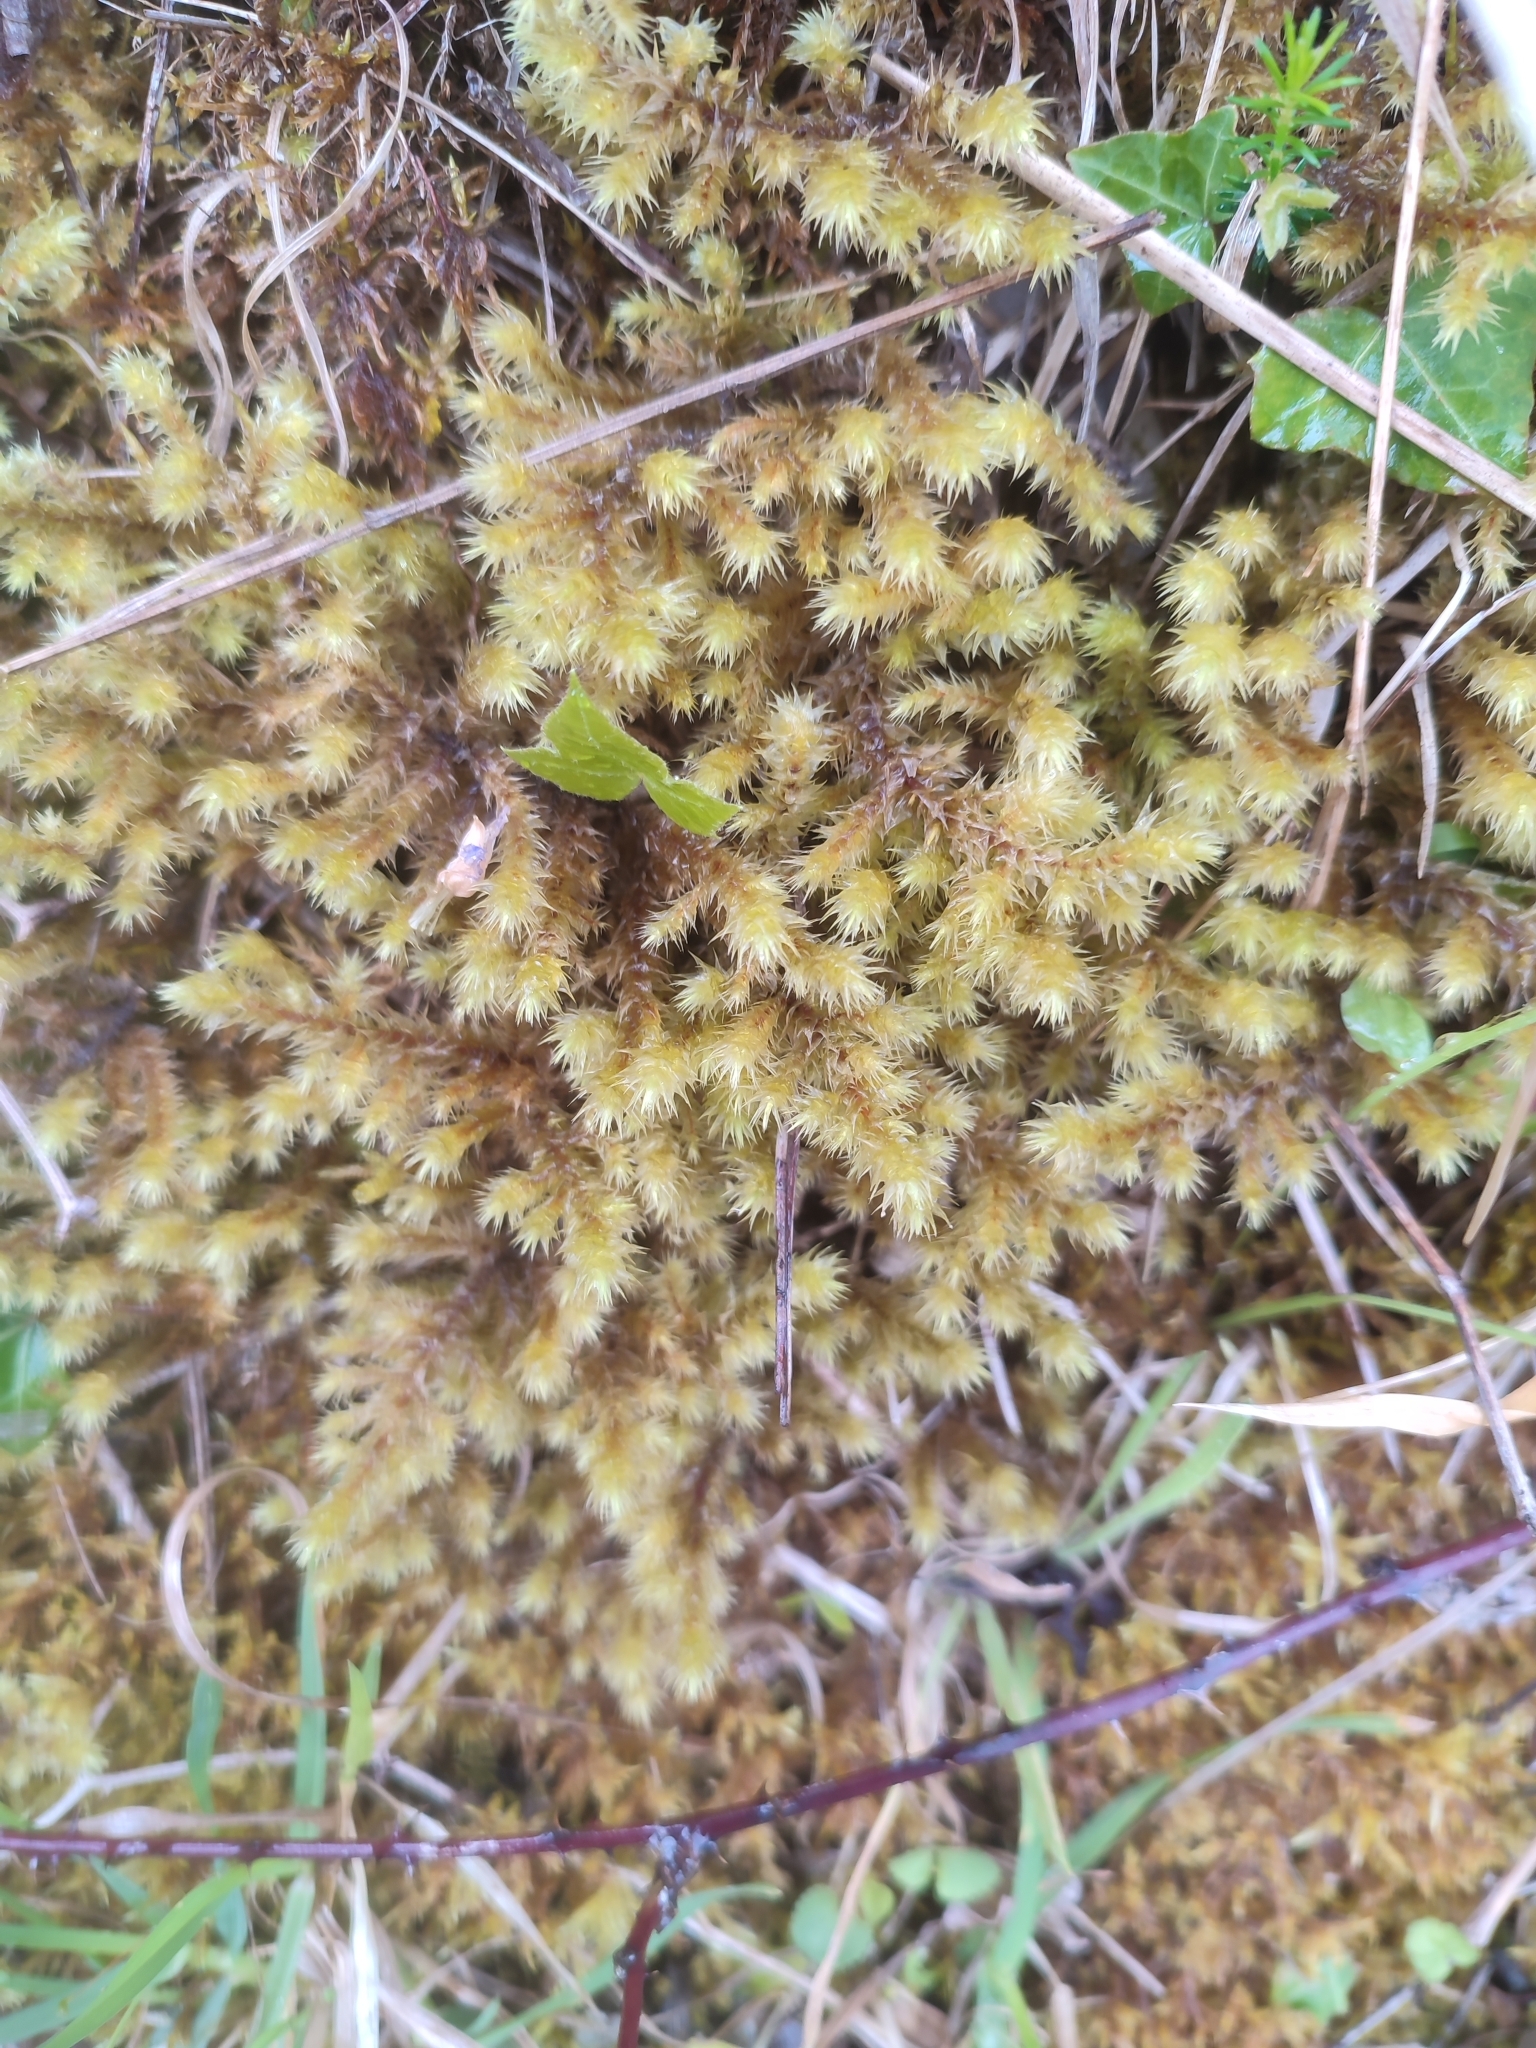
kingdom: Plantae
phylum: Bryophyta
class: Bryopsida
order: Hypnales
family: Hylocomiaceae
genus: Hylocomiadelphus
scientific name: Hylocomiadelphus triquetrus
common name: Rough goose neck moss
